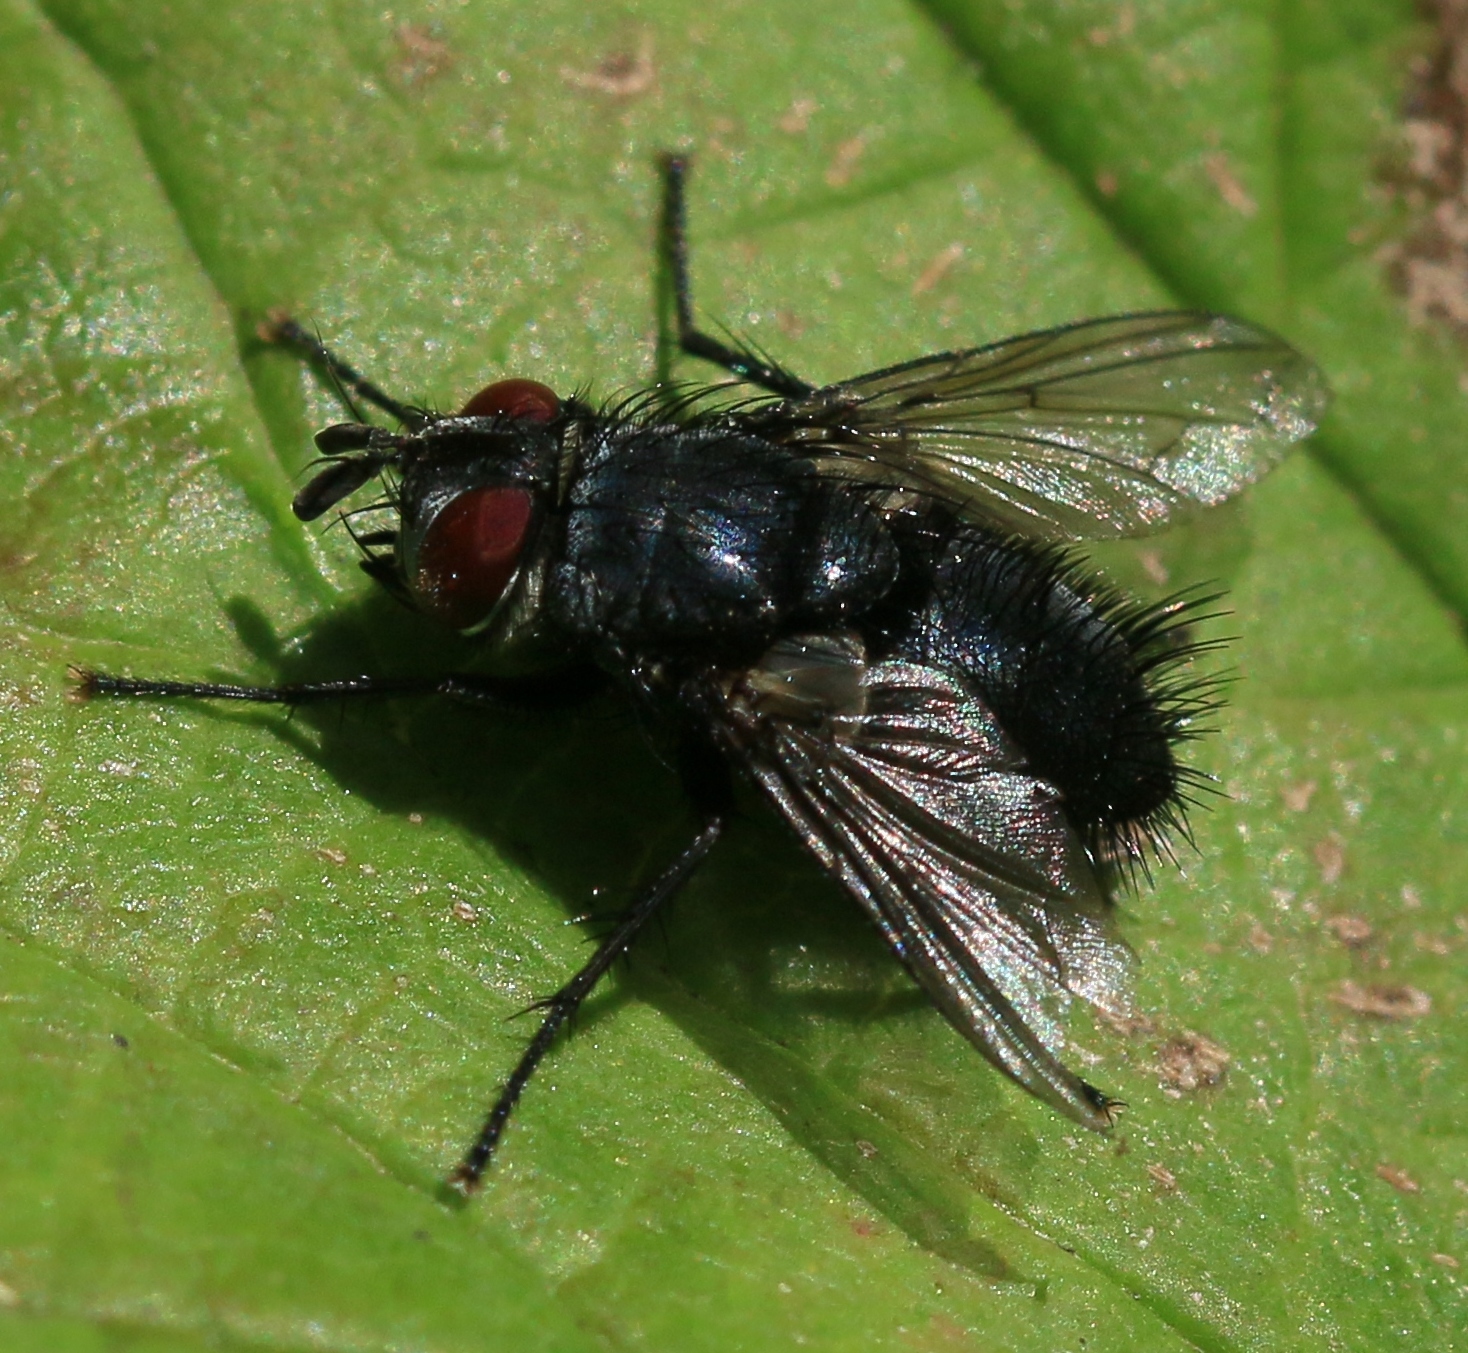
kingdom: Animalia
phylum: Arthropoda
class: Insecta
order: Diptera
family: Tachinidae
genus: Epicampocera
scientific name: Epicampocera succincta
